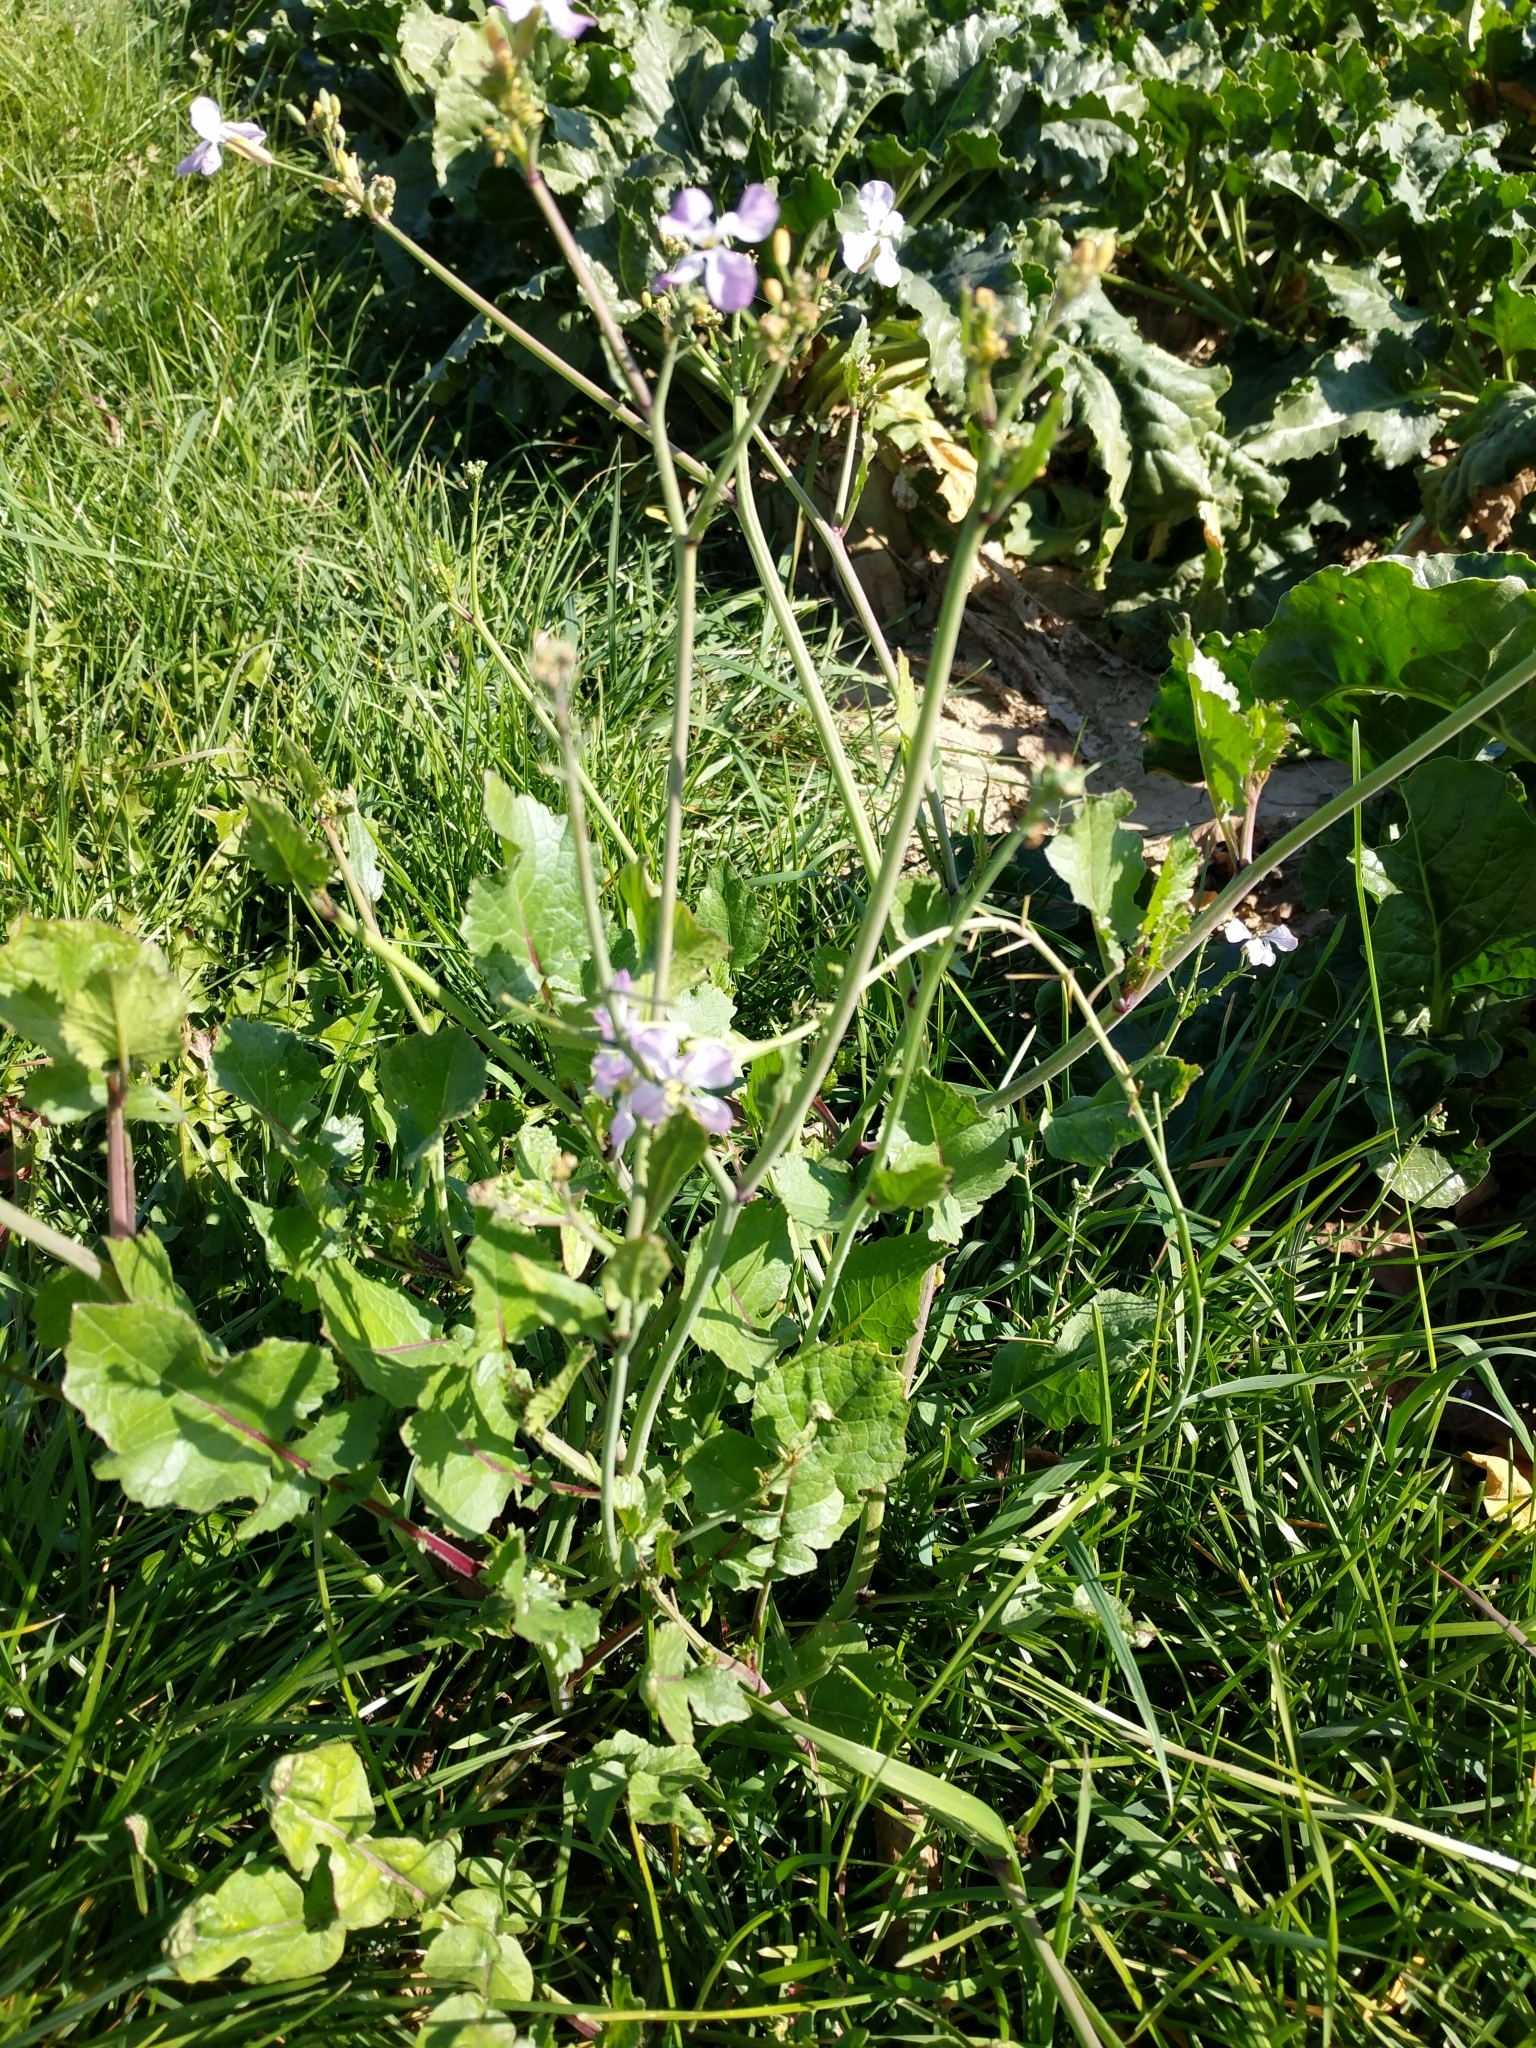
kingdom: Plantae
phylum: Tracheophyta
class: Magnoliopsida
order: Brassicales
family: Brassicaceae
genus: Raphanus
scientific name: Raphanus sativus
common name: Cultivated radish
